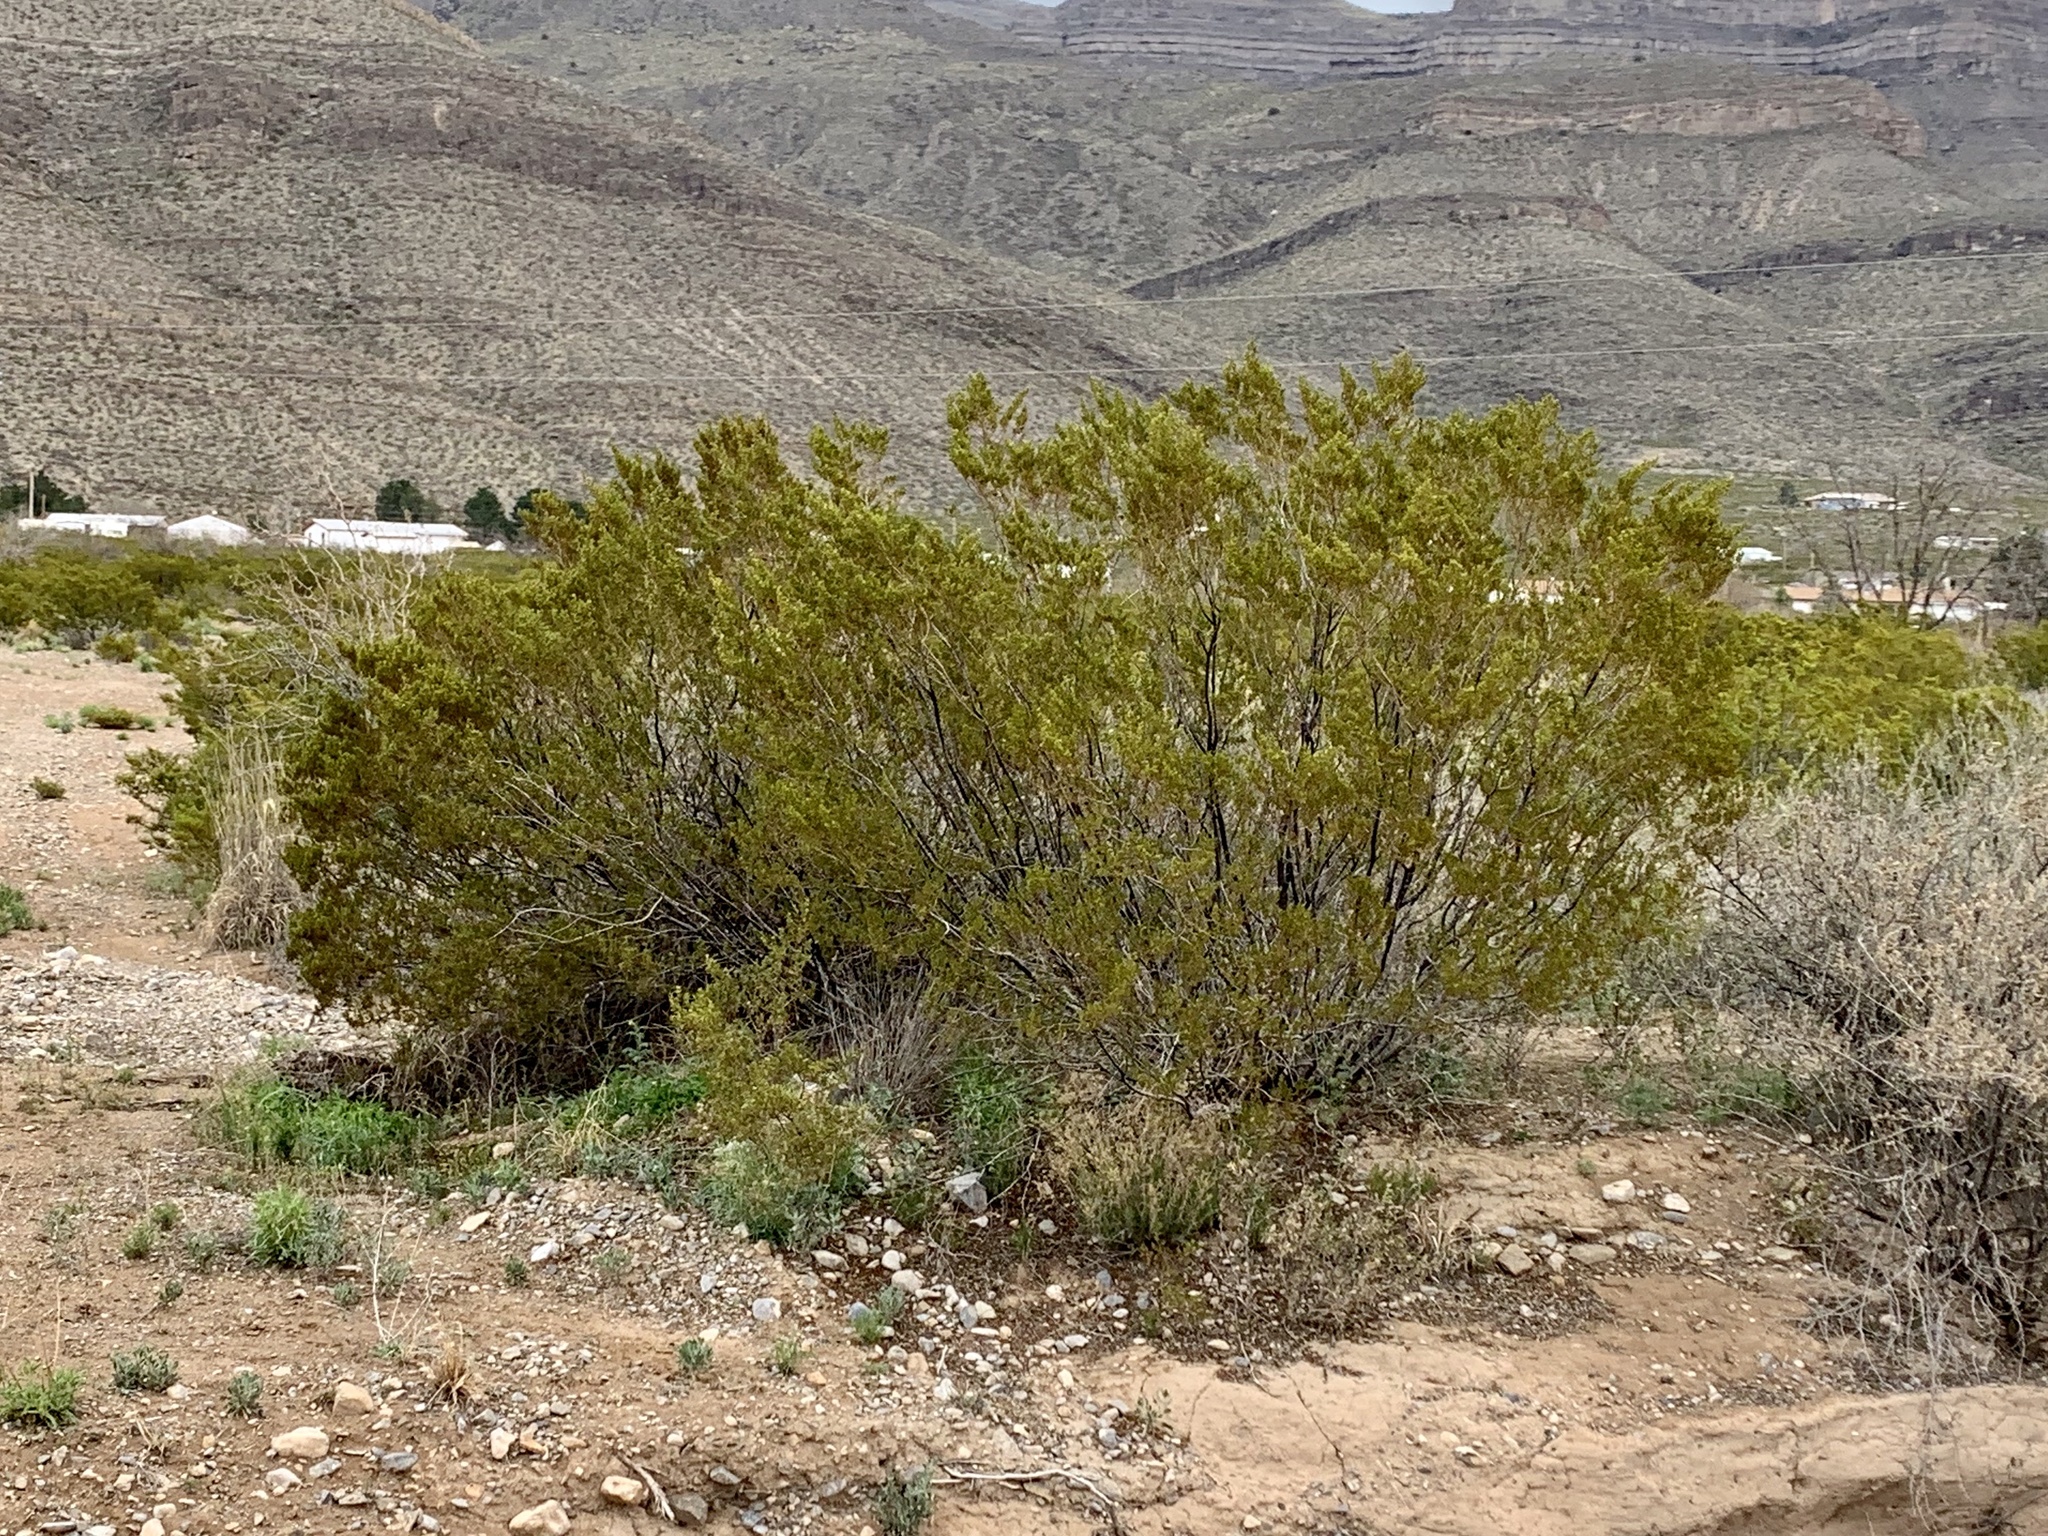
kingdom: Plantae
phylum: Tracheophyta
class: Magnoliopsida
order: Zygophyllales
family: Zygophyllaceae
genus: Larrea
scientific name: Larrea tridentata
